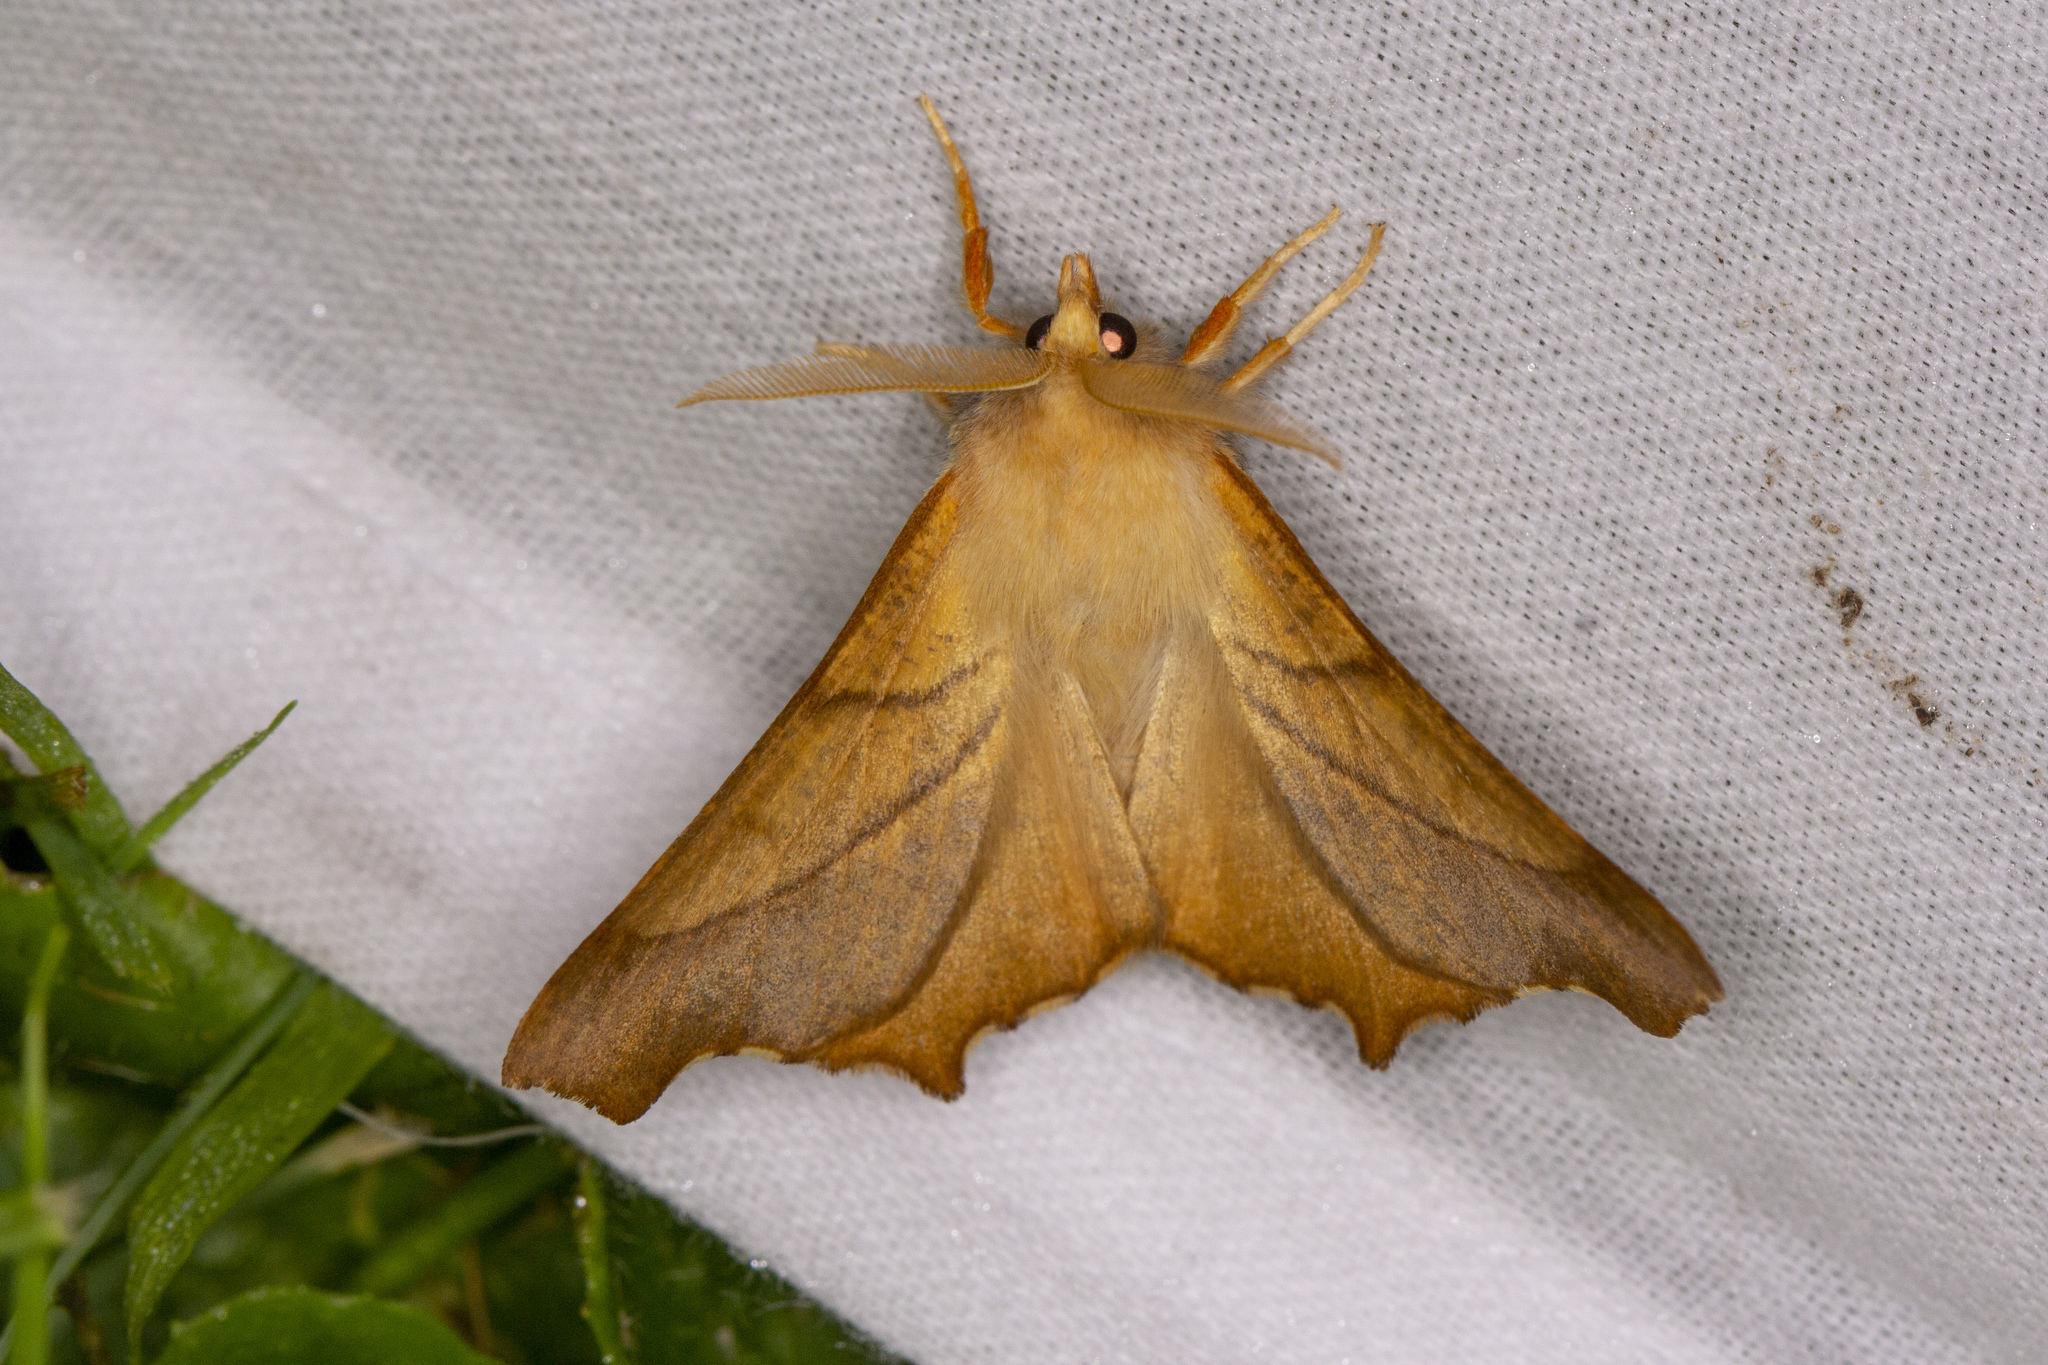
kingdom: Animalia
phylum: Arthropoda
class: Insecta
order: Lepidoptera
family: Geometridae
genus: Ennomos
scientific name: Ennomos fuscantaria
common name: Dusky thorn
